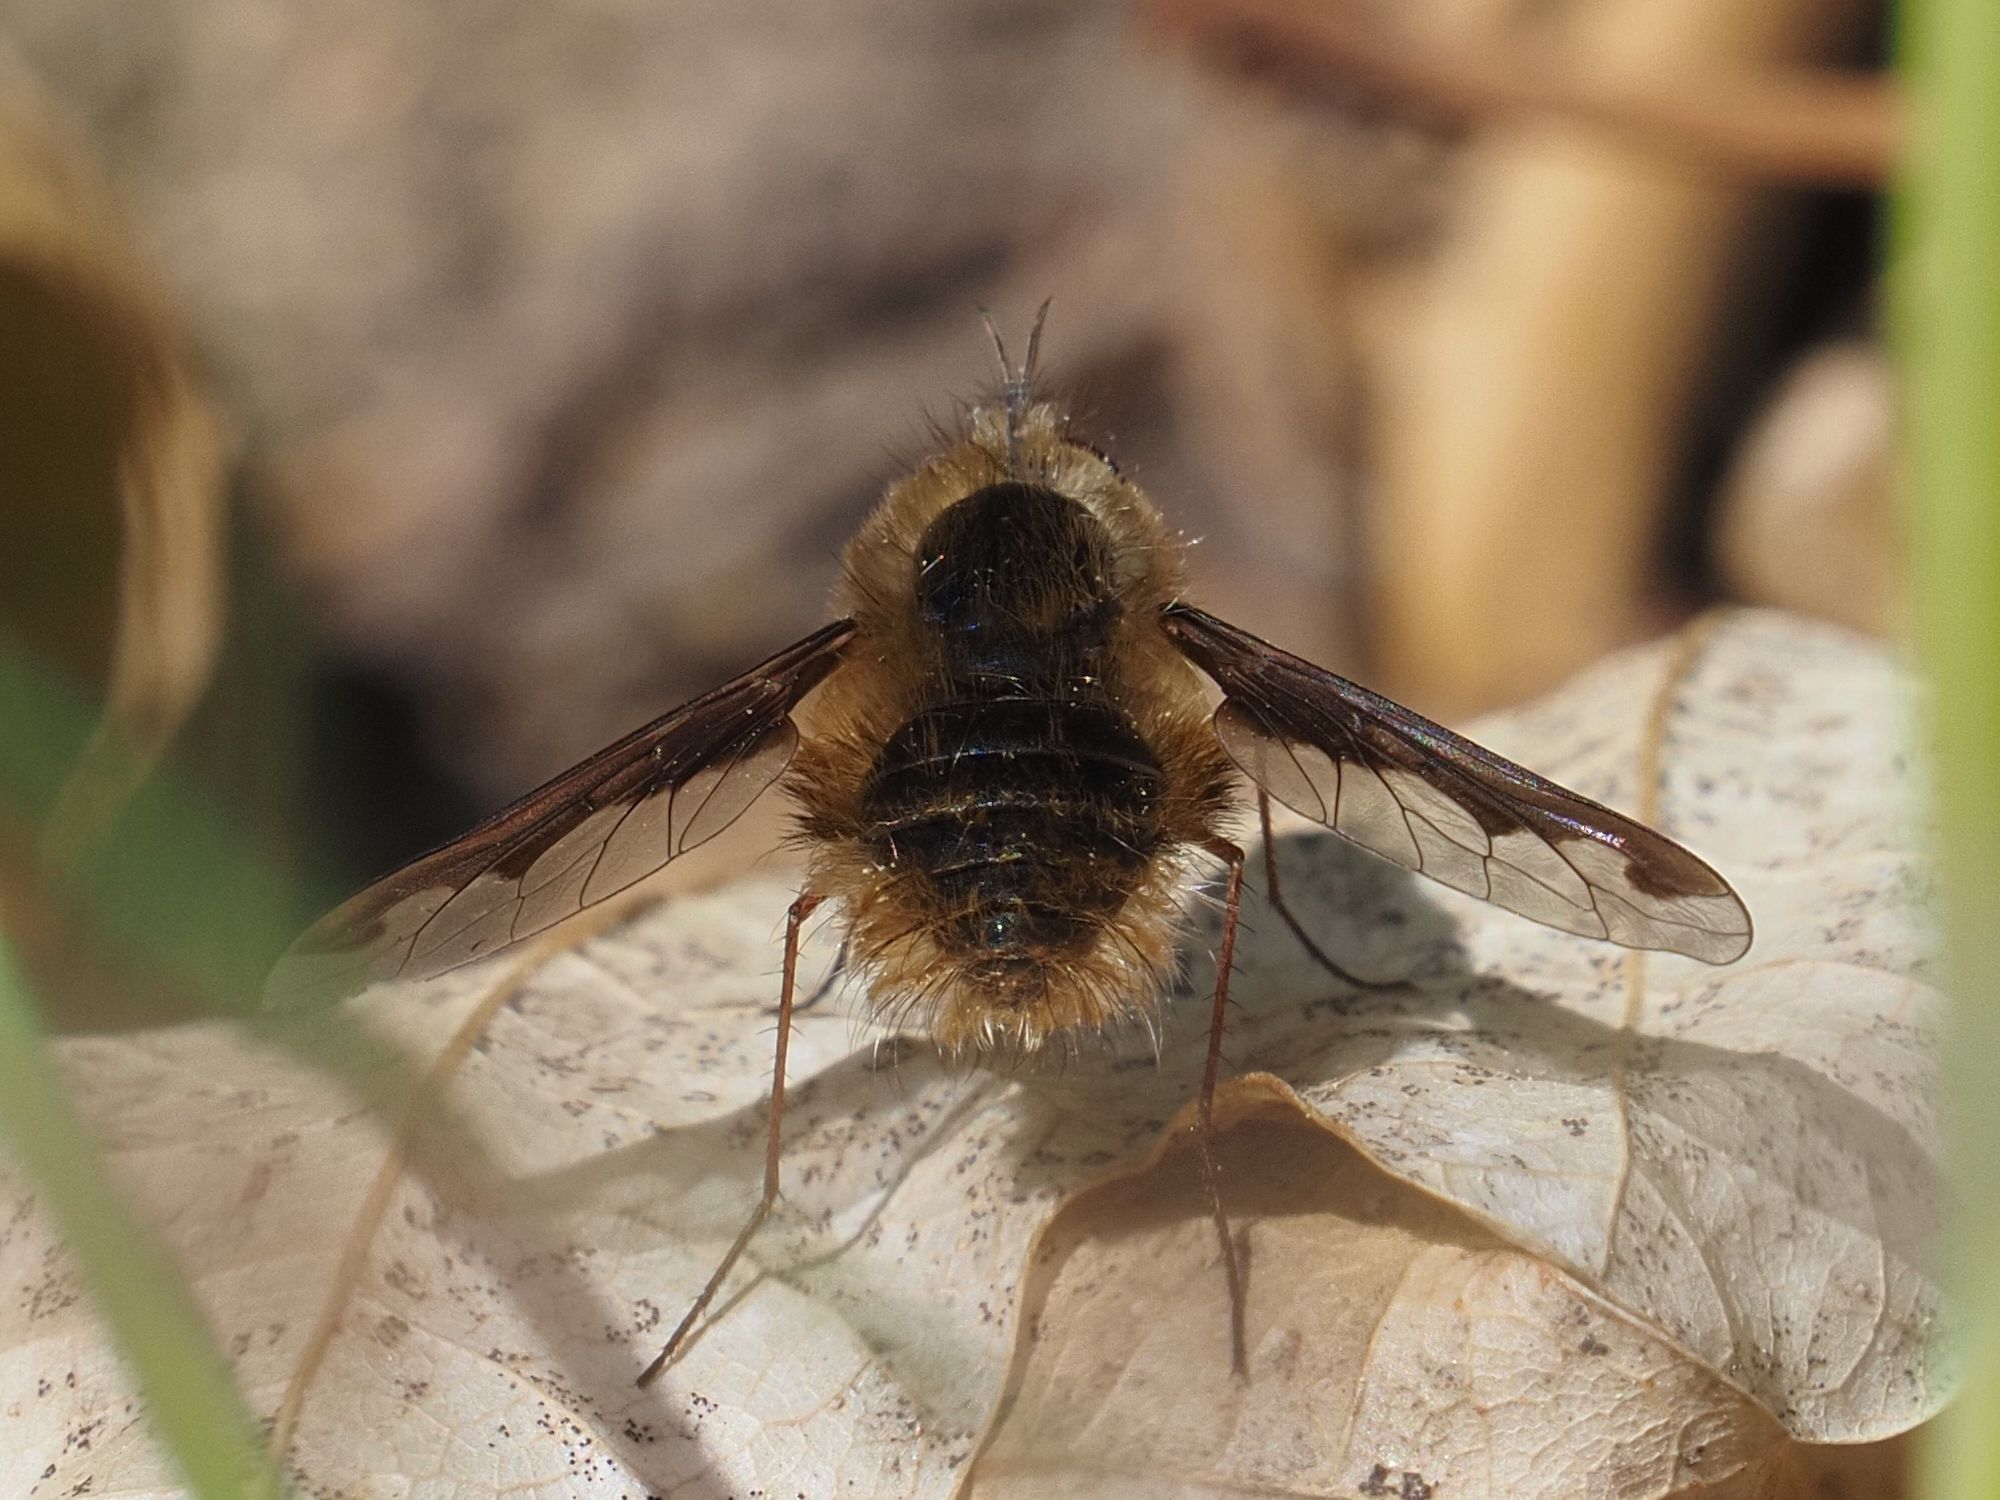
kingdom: Animalia
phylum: Arthropoda
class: Insecta
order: Diptera
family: Bombyliidae
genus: Bombylius
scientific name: Bombylius major
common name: Bee fly
